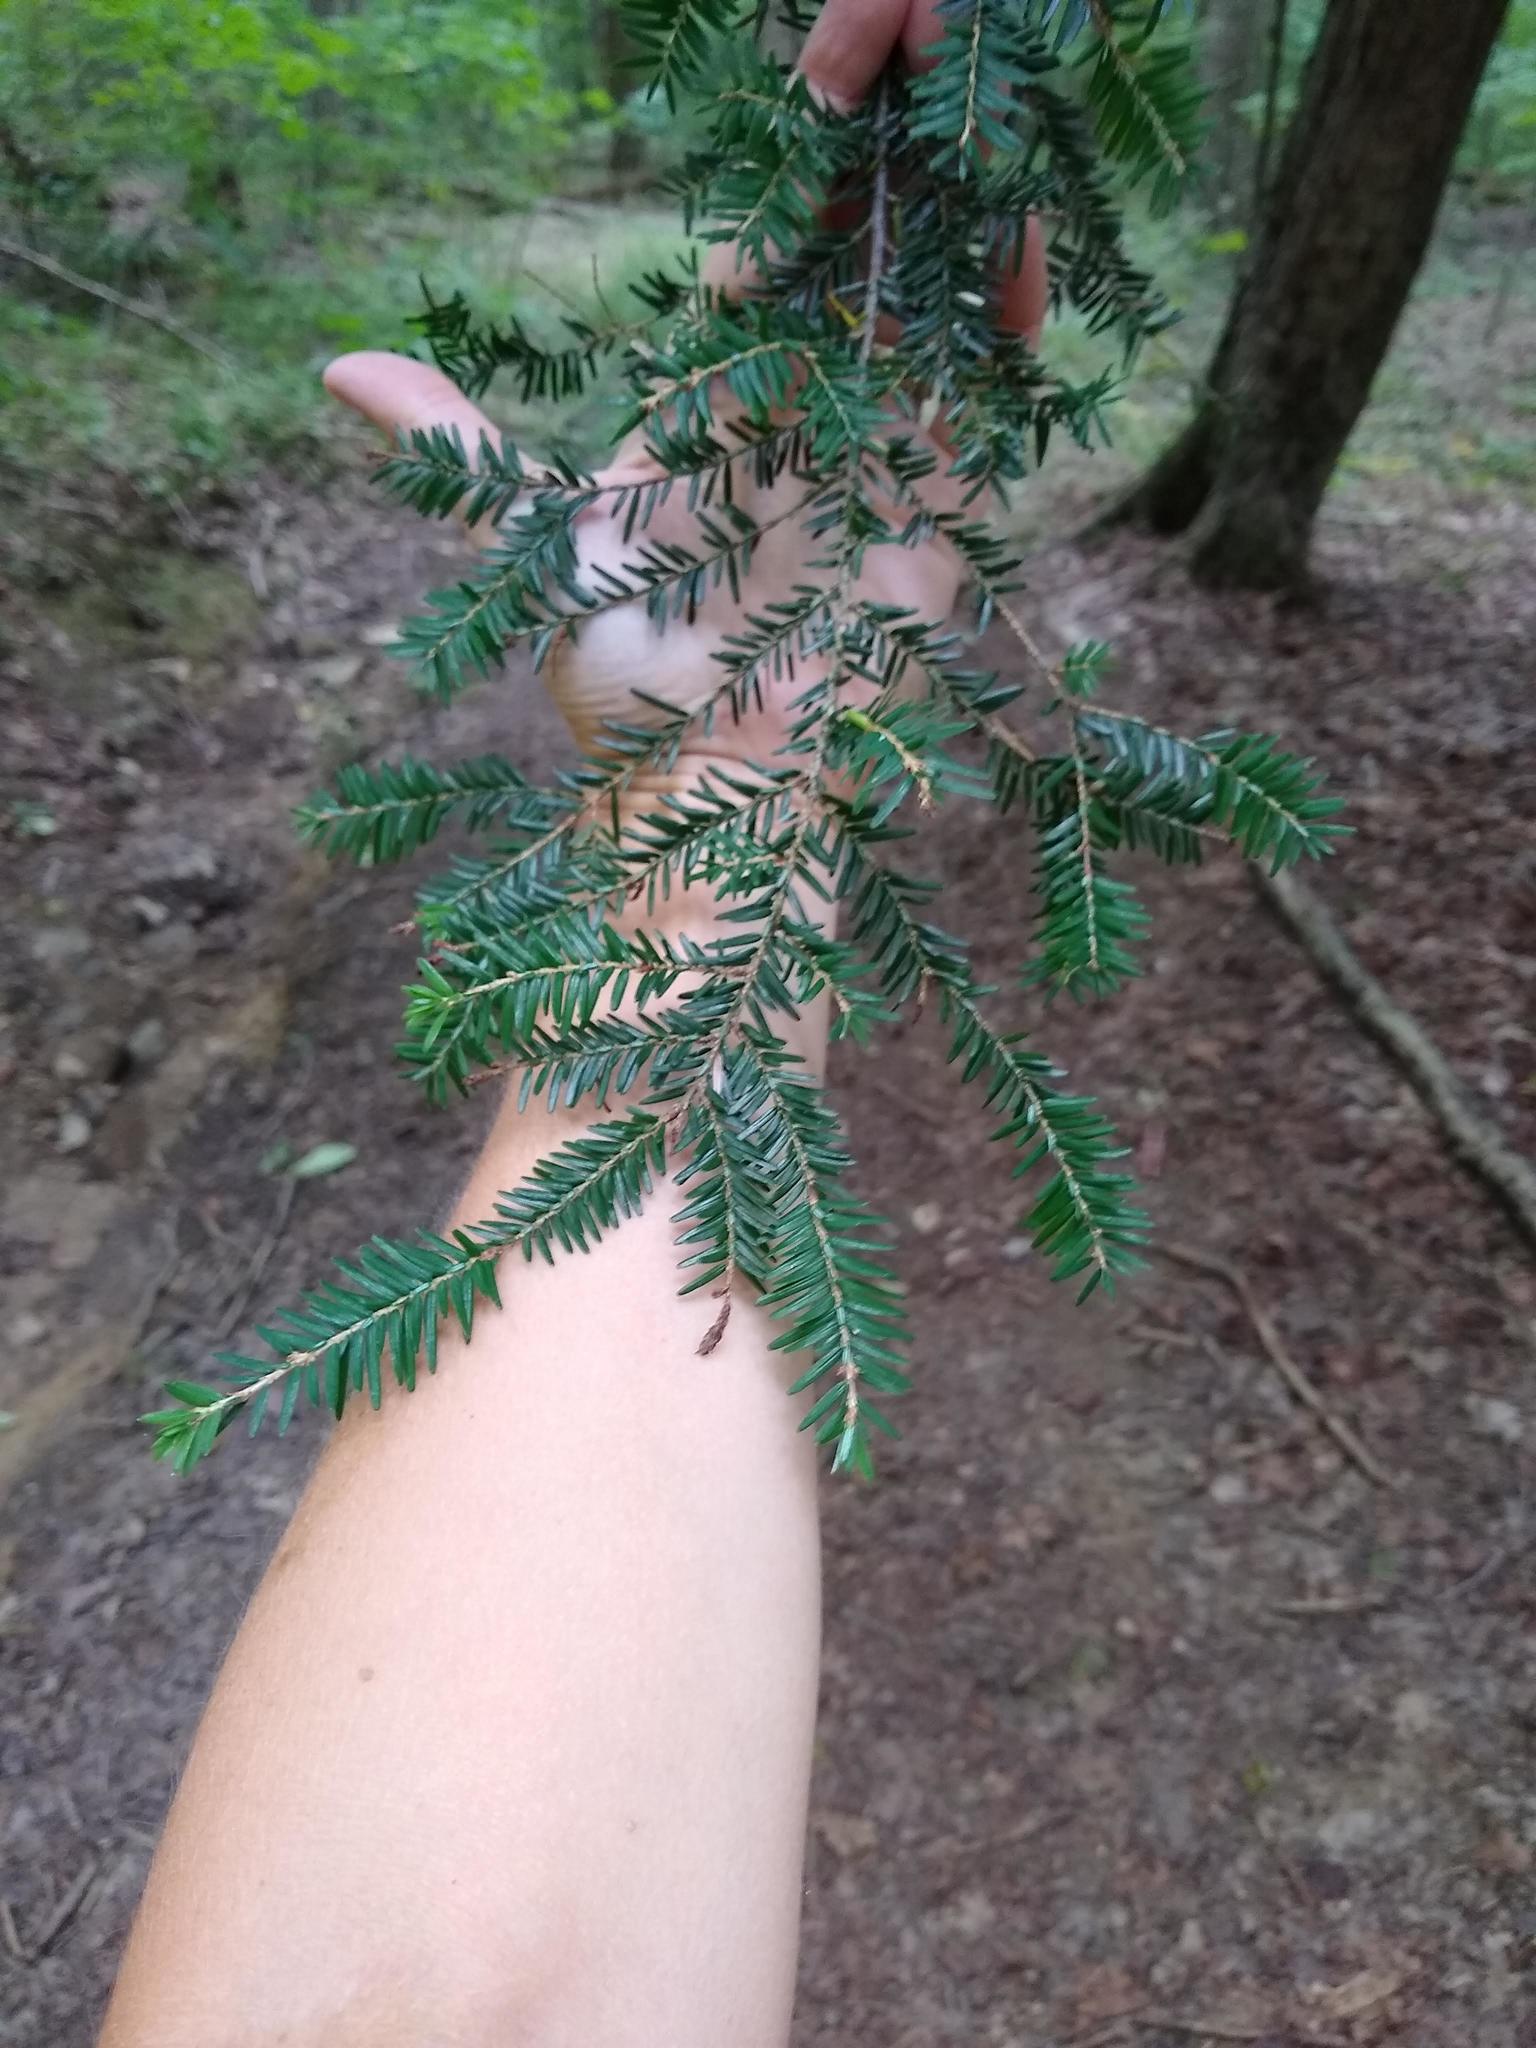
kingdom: Plantae
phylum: Tracheophyta
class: Pinopsida
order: Pinales
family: Pinaceae
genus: Tsuga
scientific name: Tsuga canadensis
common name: Eastern hemlock
